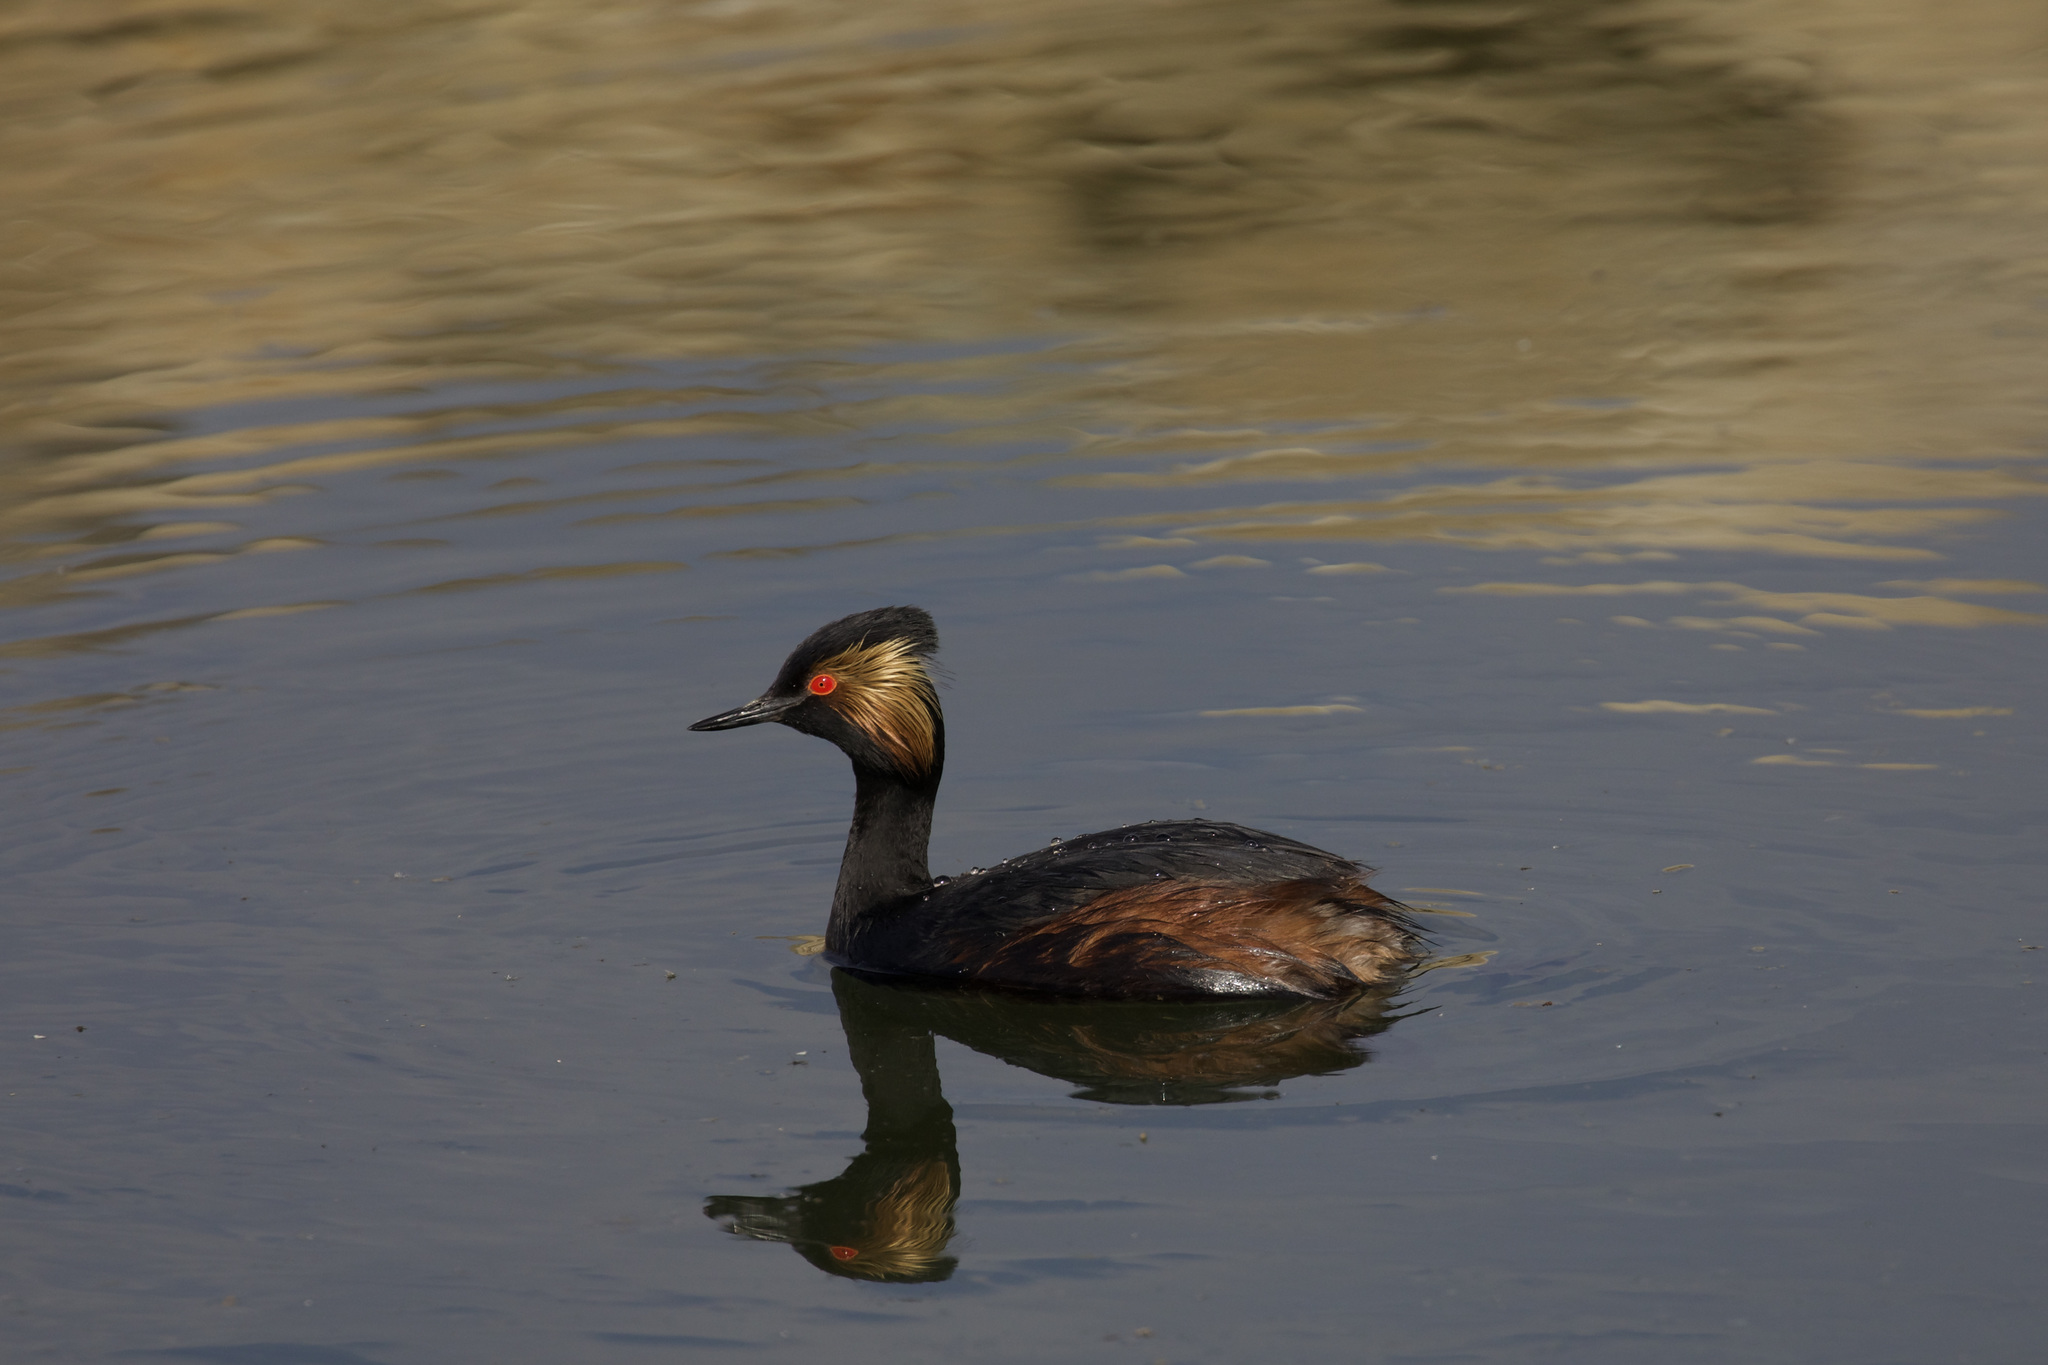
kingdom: Animalia
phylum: Chordata
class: Aves
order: Podicipediformes
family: Podicipedidae
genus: Podiceps
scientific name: Podiceps nigricollis
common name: Black-necked grebe
